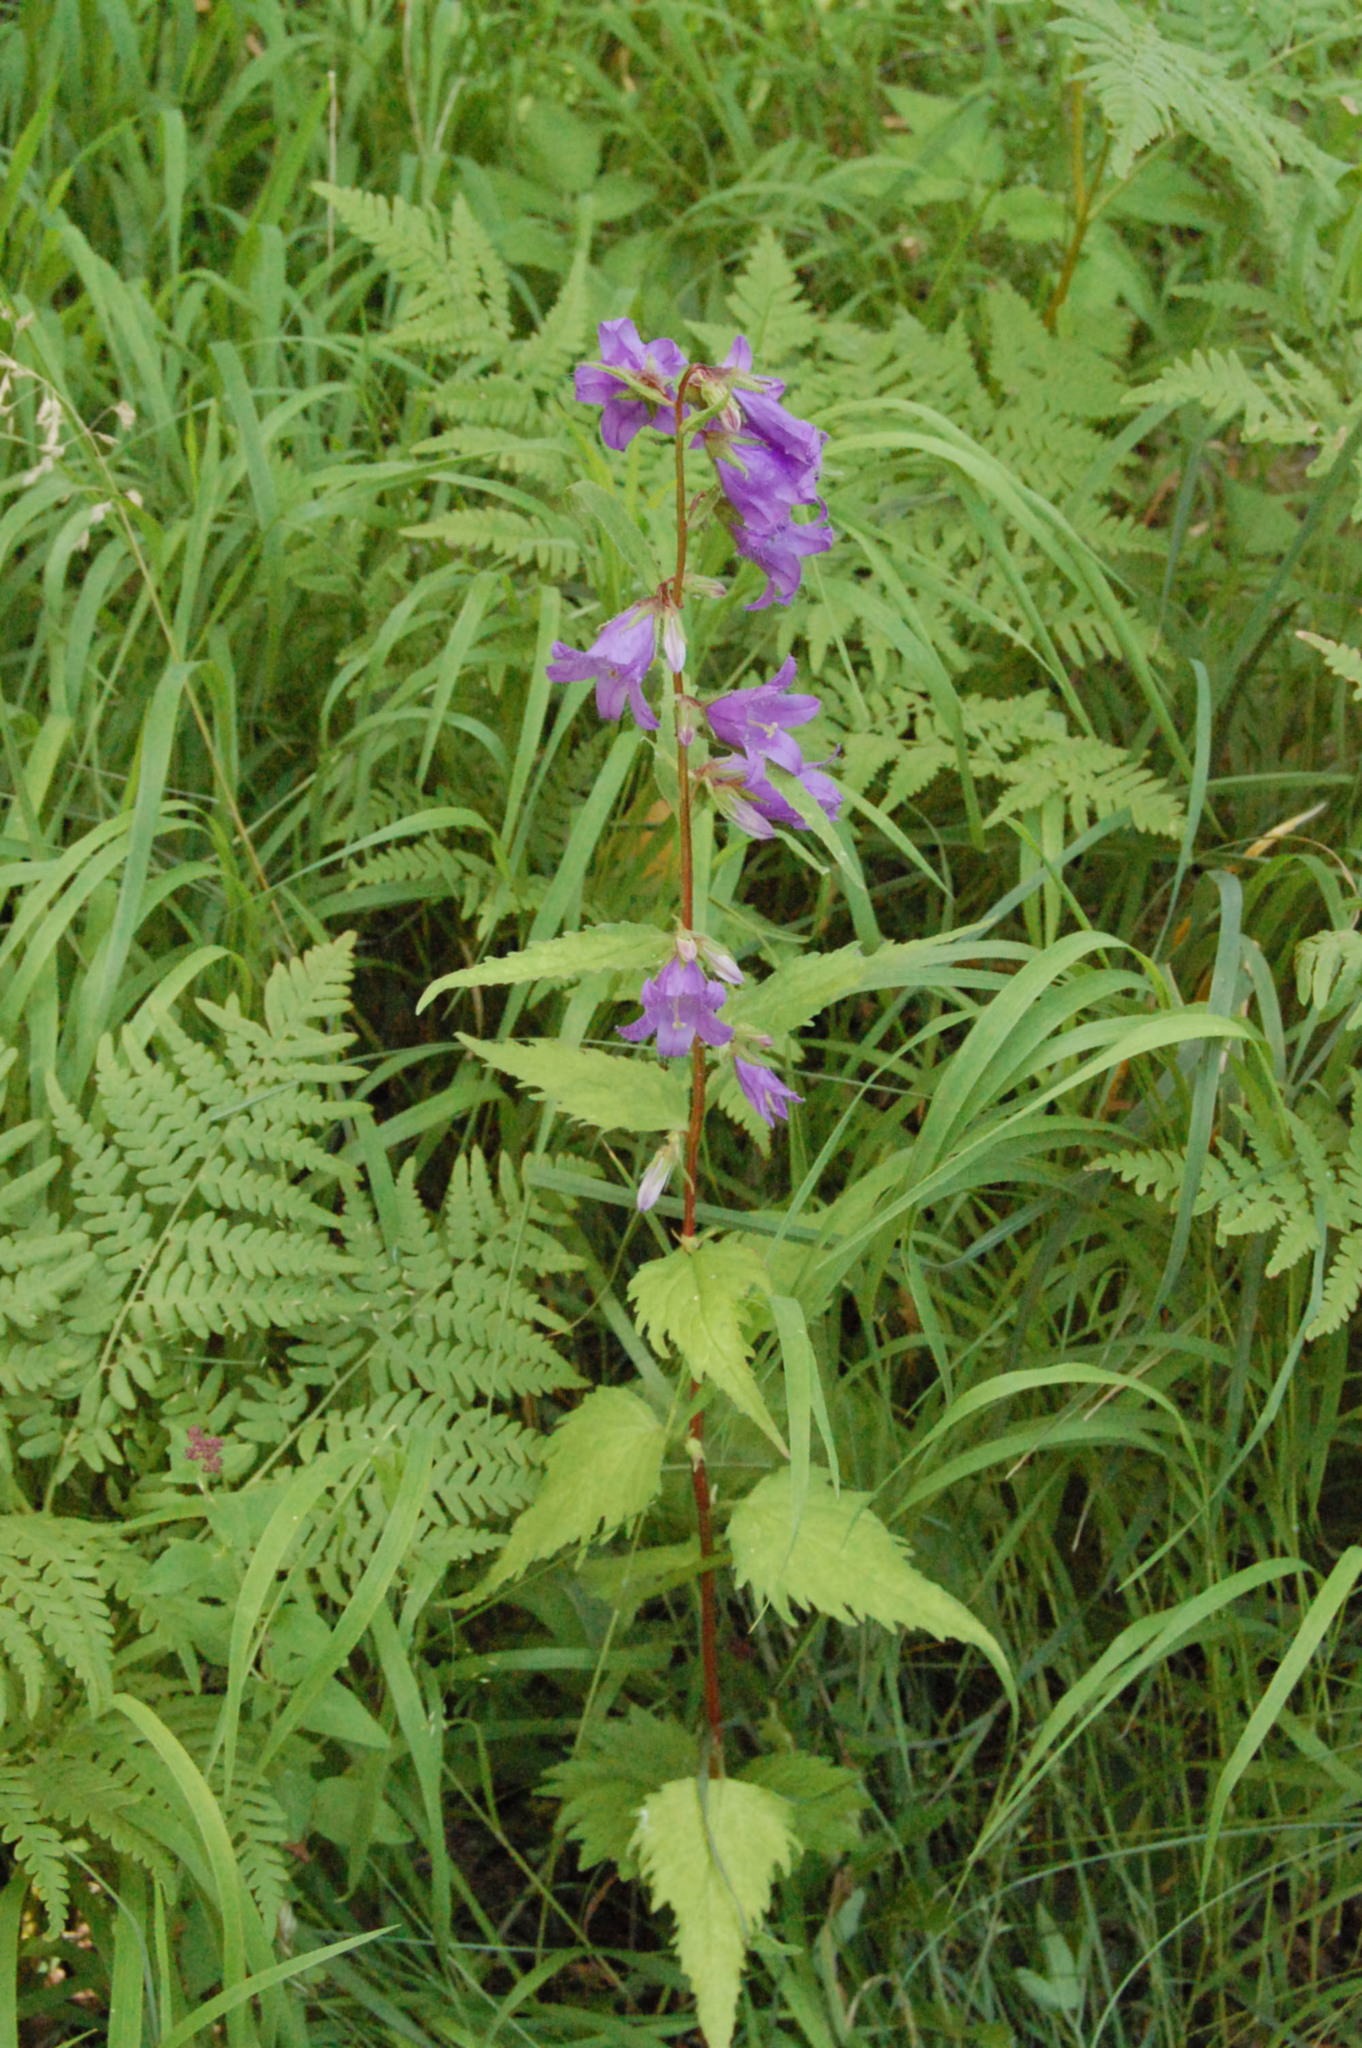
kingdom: Plantae
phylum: Tracheophyta
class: Magnoliopsida
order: Asterales
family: Campanulaceae
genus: Campanula
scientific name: Campanula trachelium
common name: Nettle-leaved bellflower
